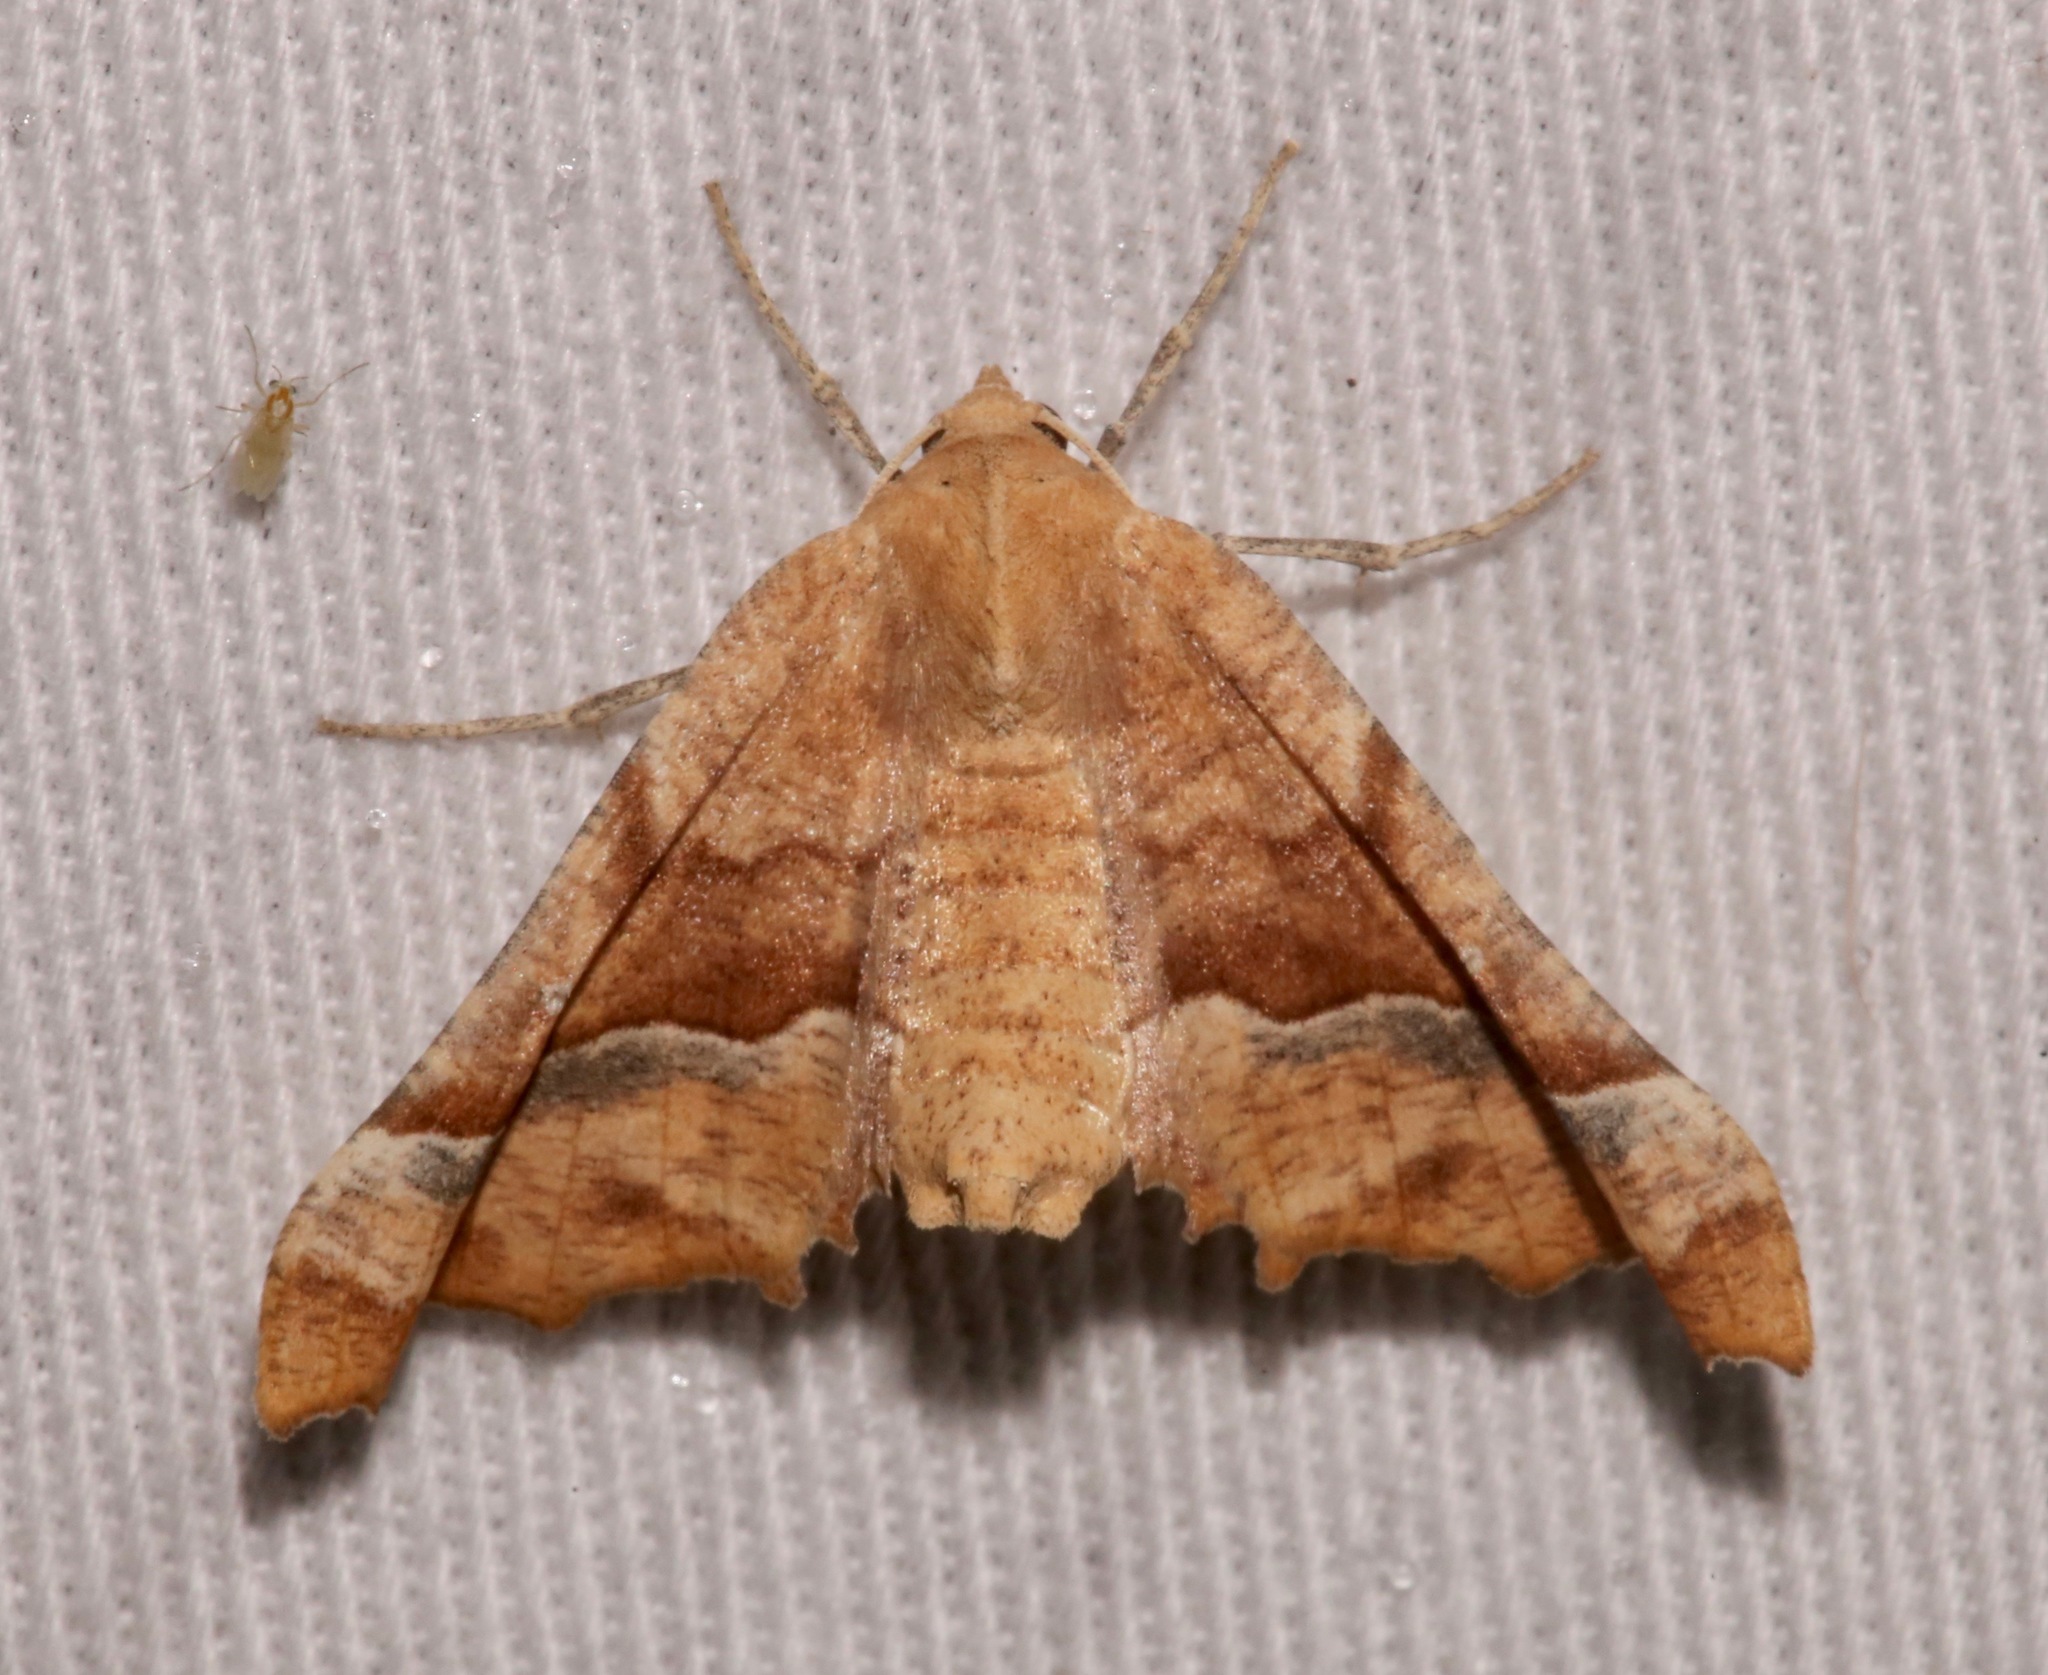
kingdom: Animalia
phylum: Arthropoda
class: Insecta
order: Lepidoptera
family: Geometridae
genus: Pero
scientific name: Pero flavisaria
